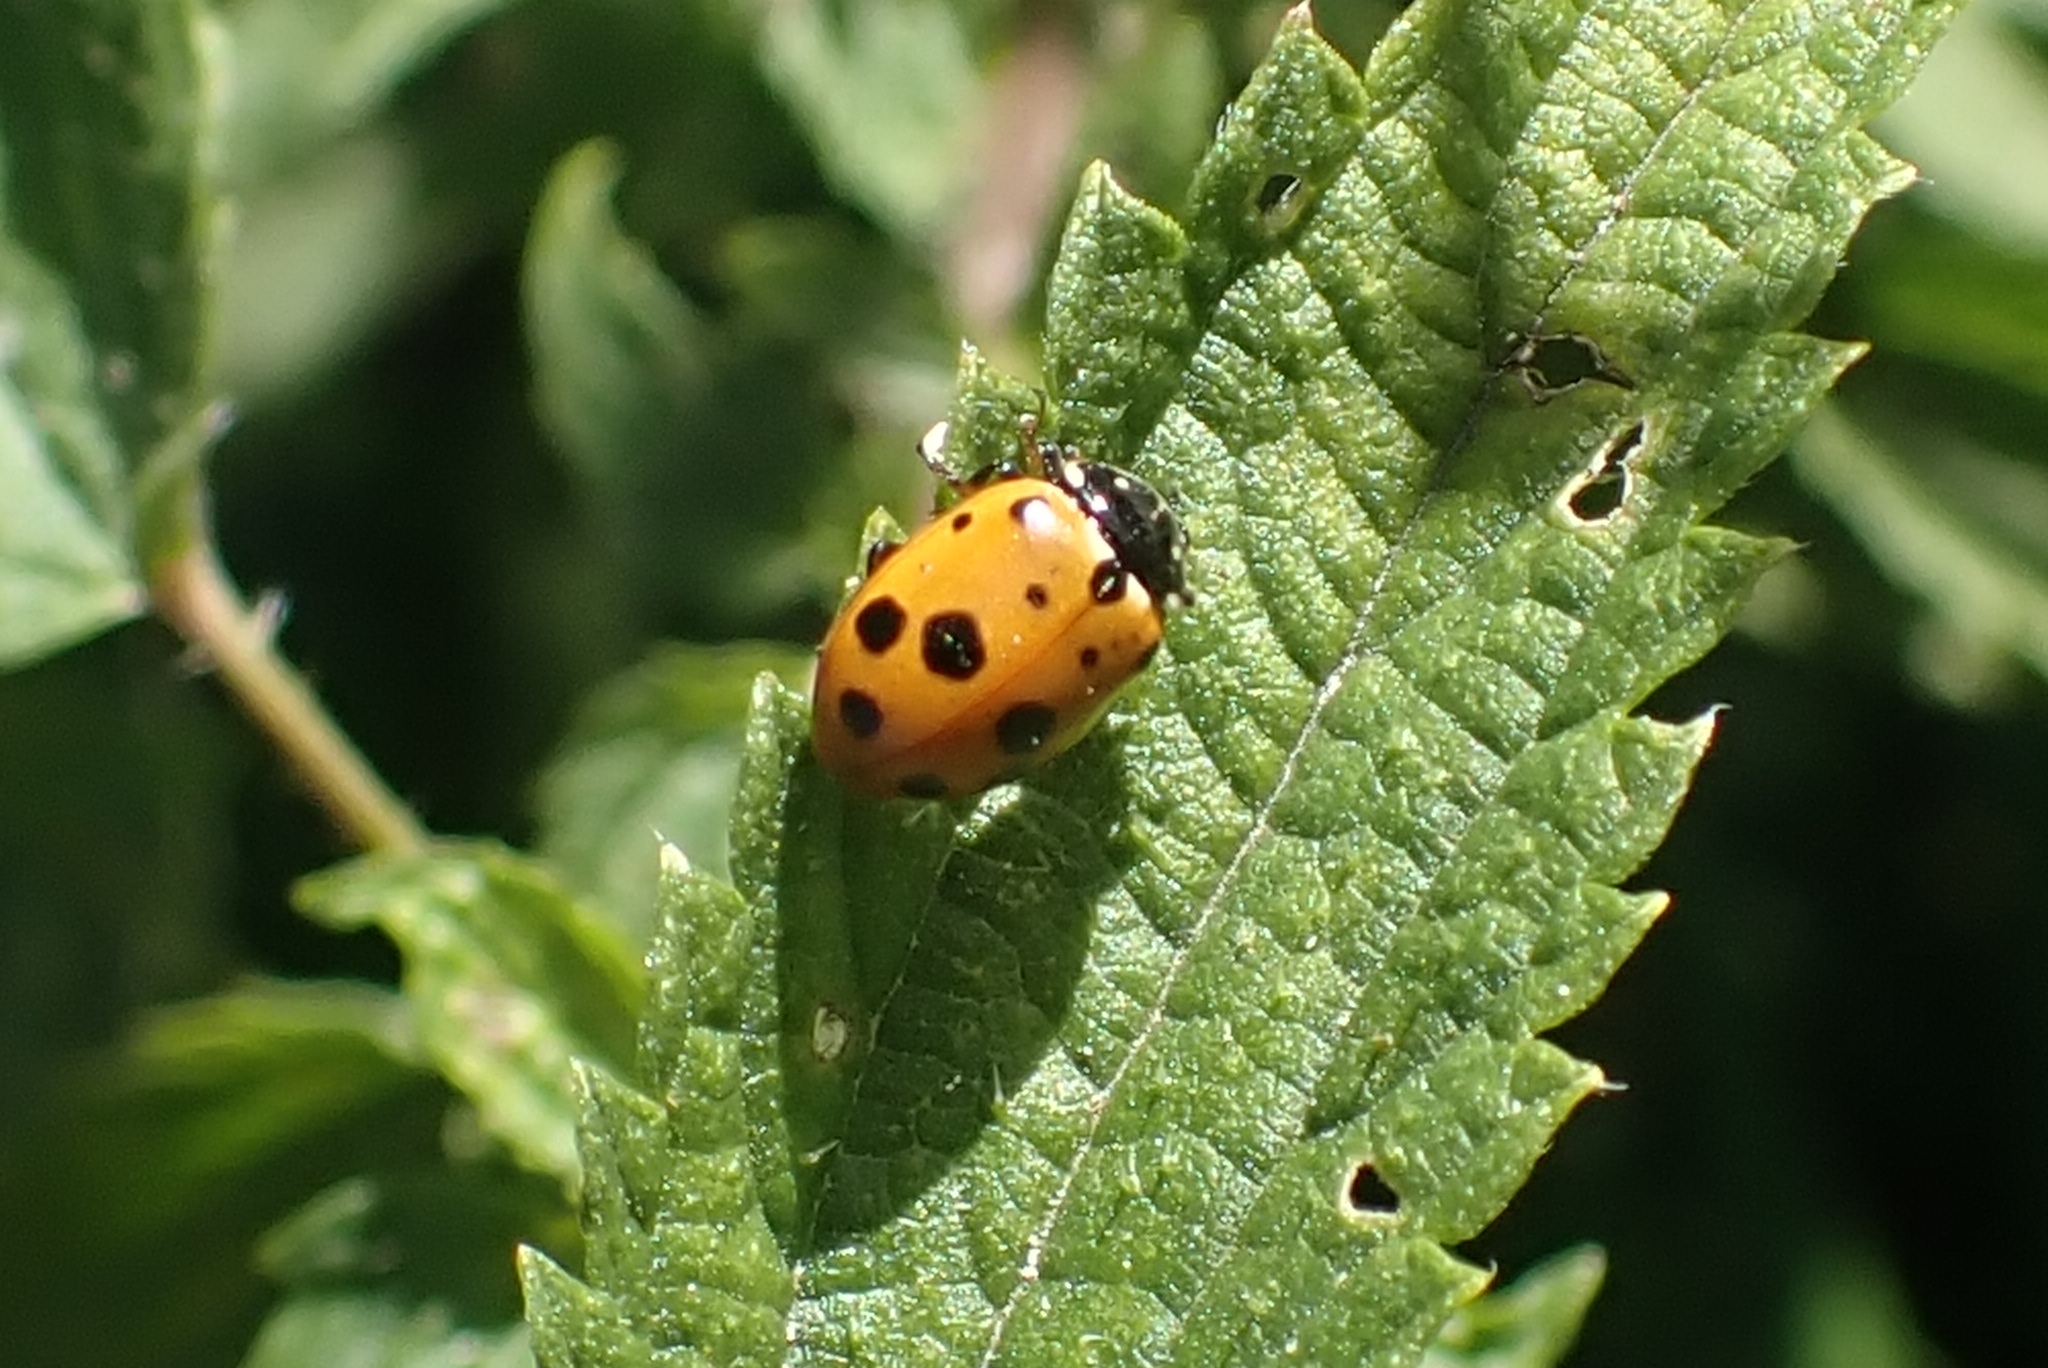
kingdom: Animalia
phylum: Arthropoda
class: Insecta
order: Coleoptera
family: Coccinellidae
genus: Hippodamia
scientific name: Hippodamia variegata
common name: Ladybird beetle
